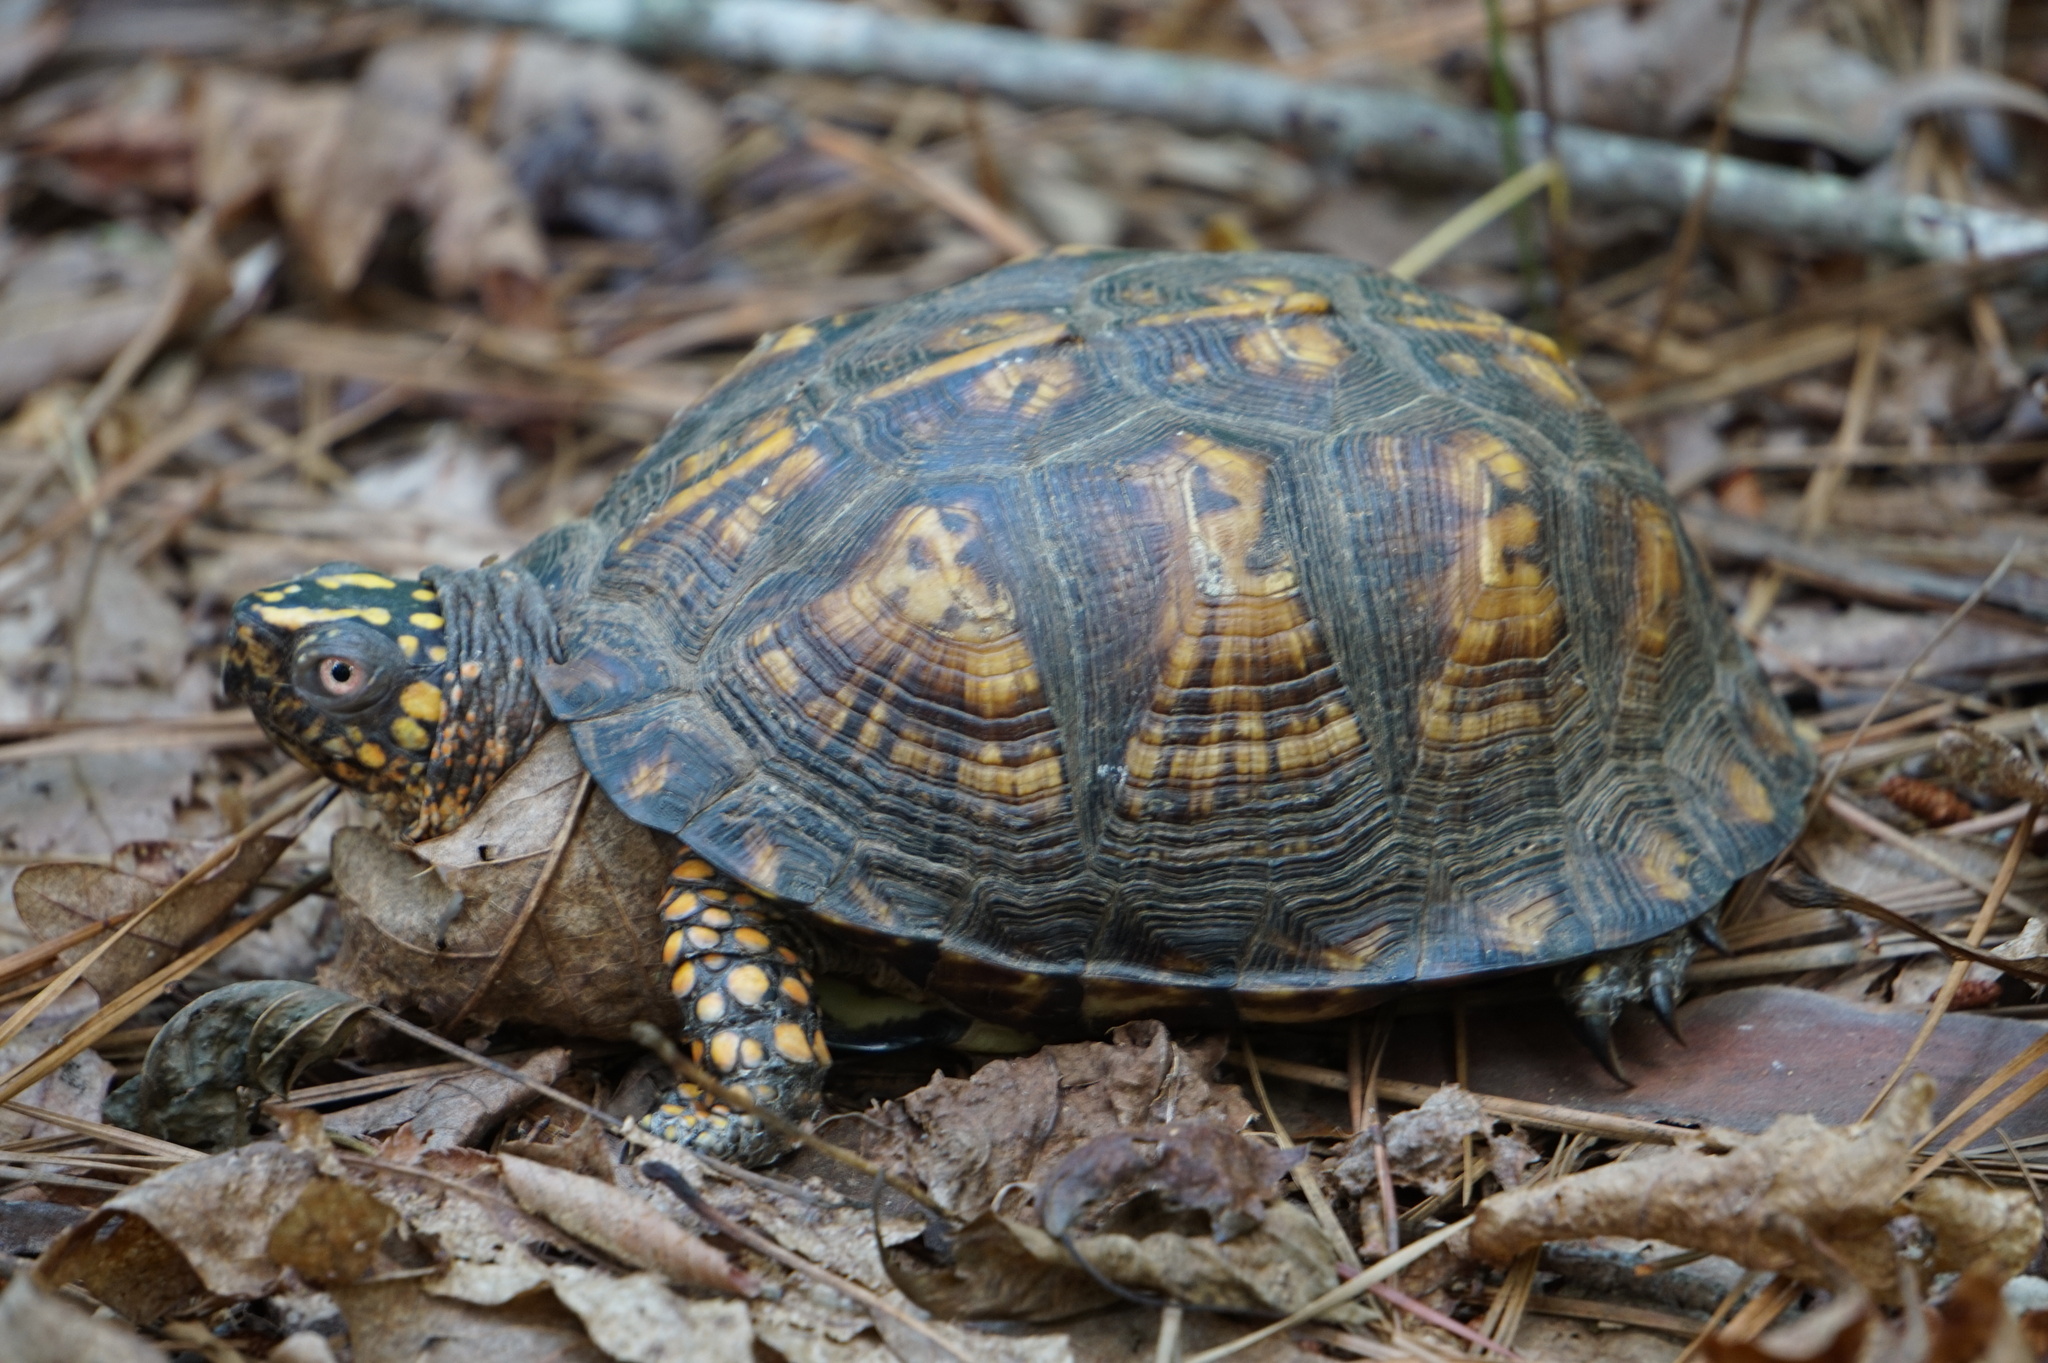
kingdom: Animalia
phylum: Chordata
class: Testudines
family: Emydidae
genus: Terrapene
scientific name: Terrapene carolina
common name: Common box turtle
